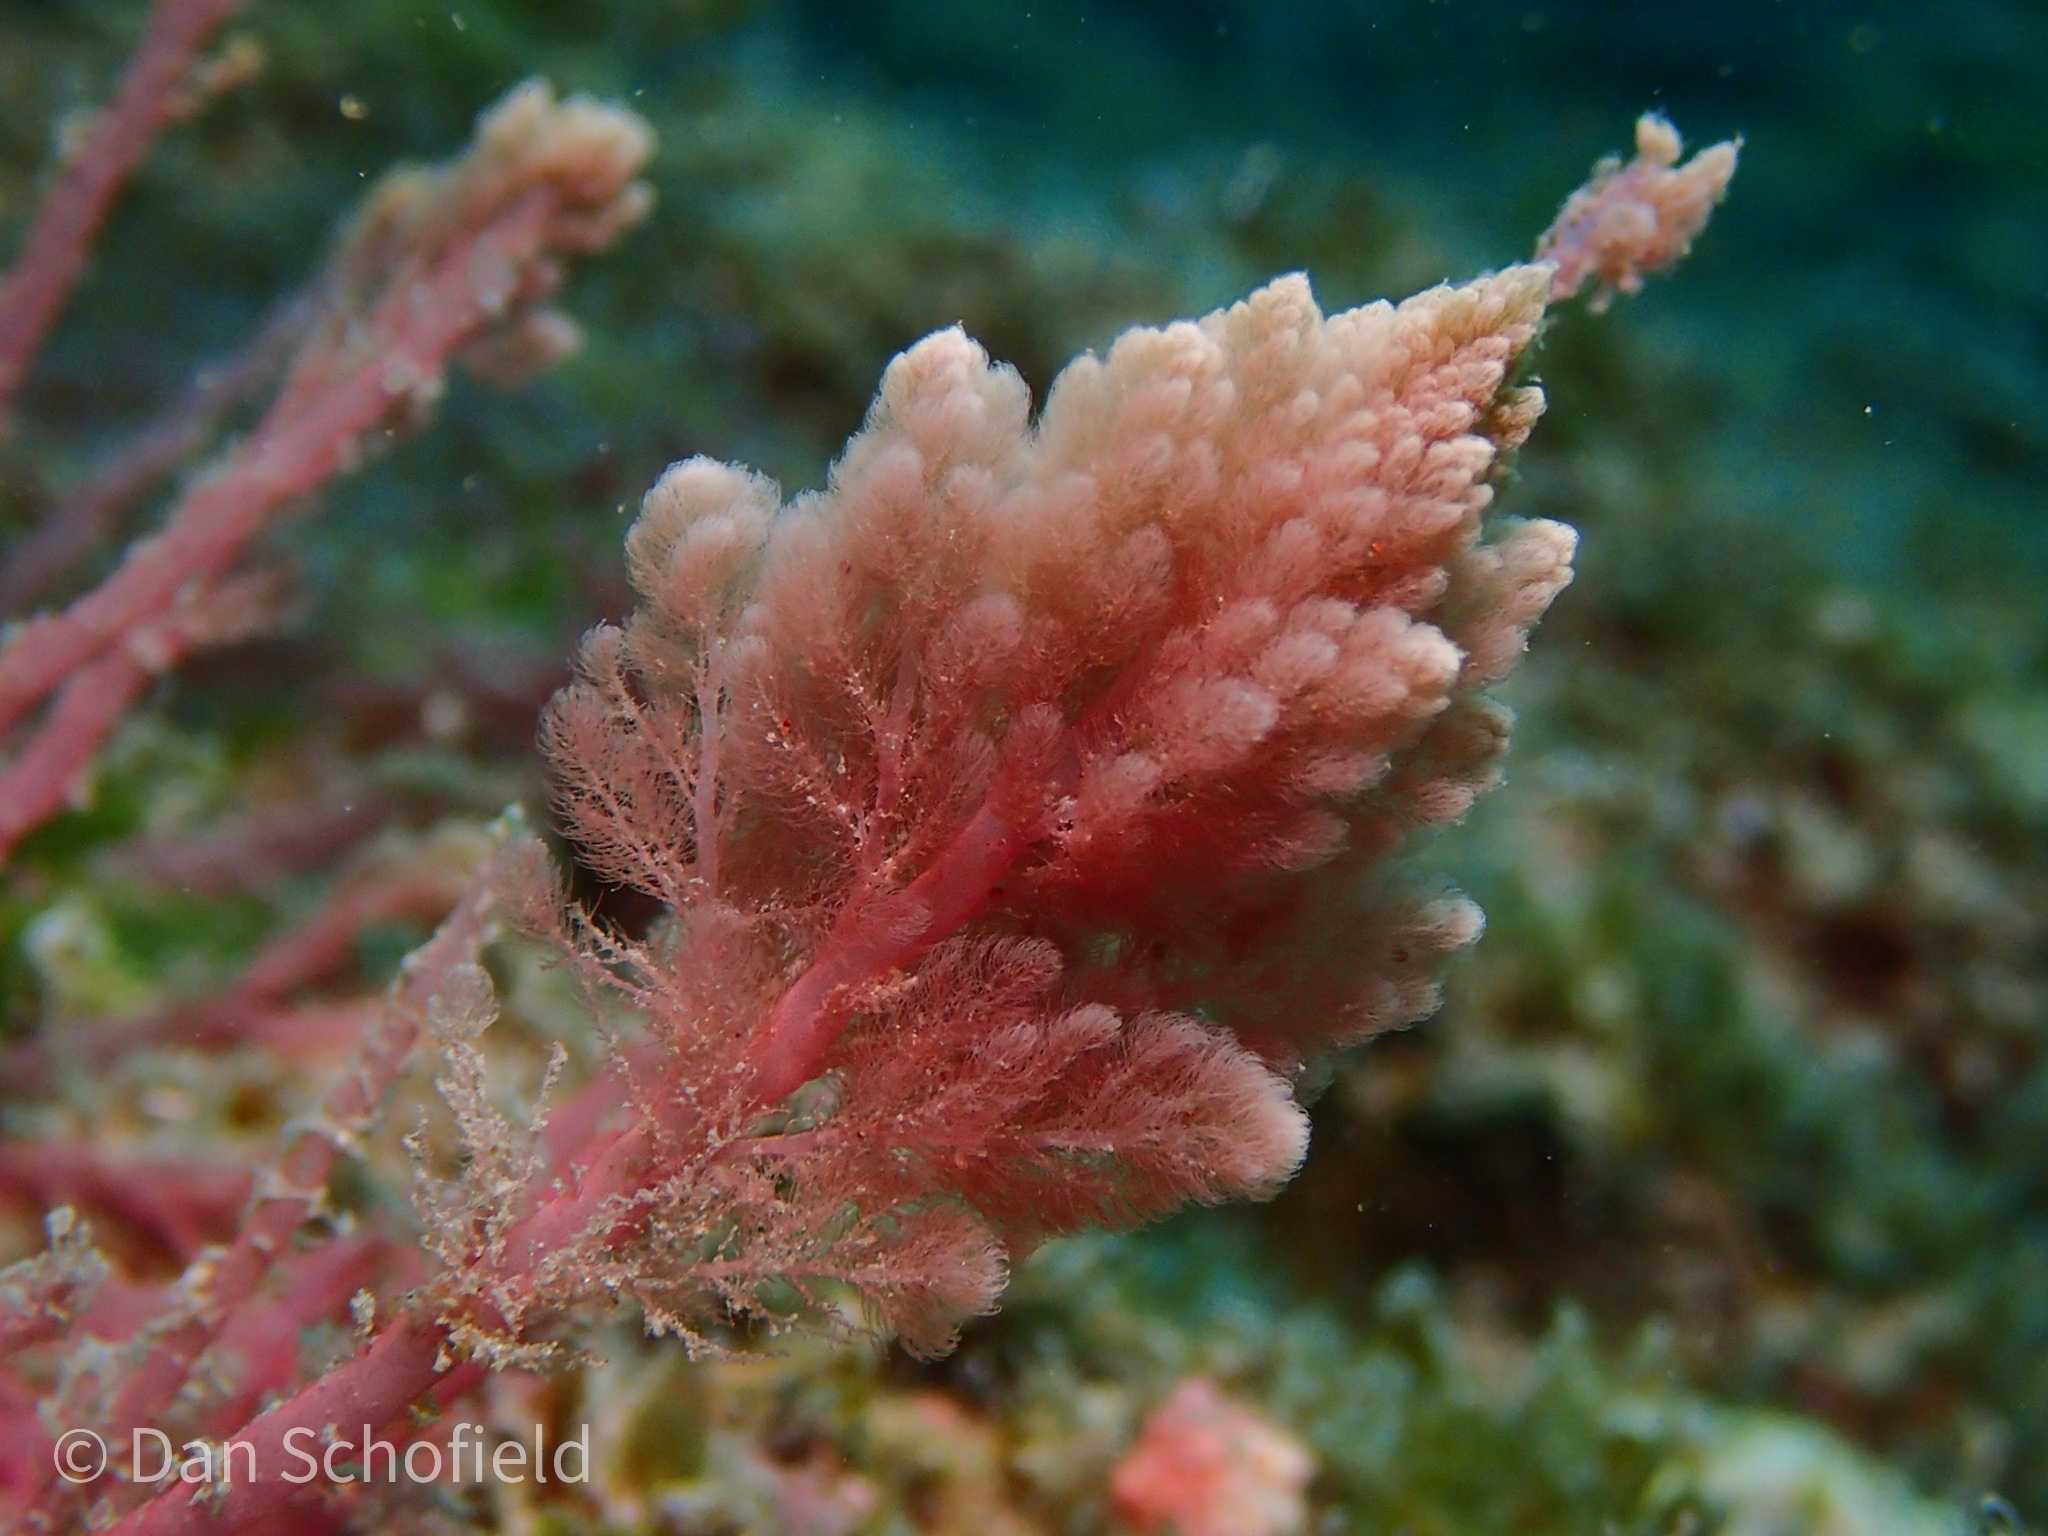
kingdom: Plantae
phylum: Rhodophyta
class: Florideophyceae
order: Bonnemaisoniales
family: Bonnemaisoniaceae
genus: Asparagopsis
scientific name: Asparagopsis taxiformis
